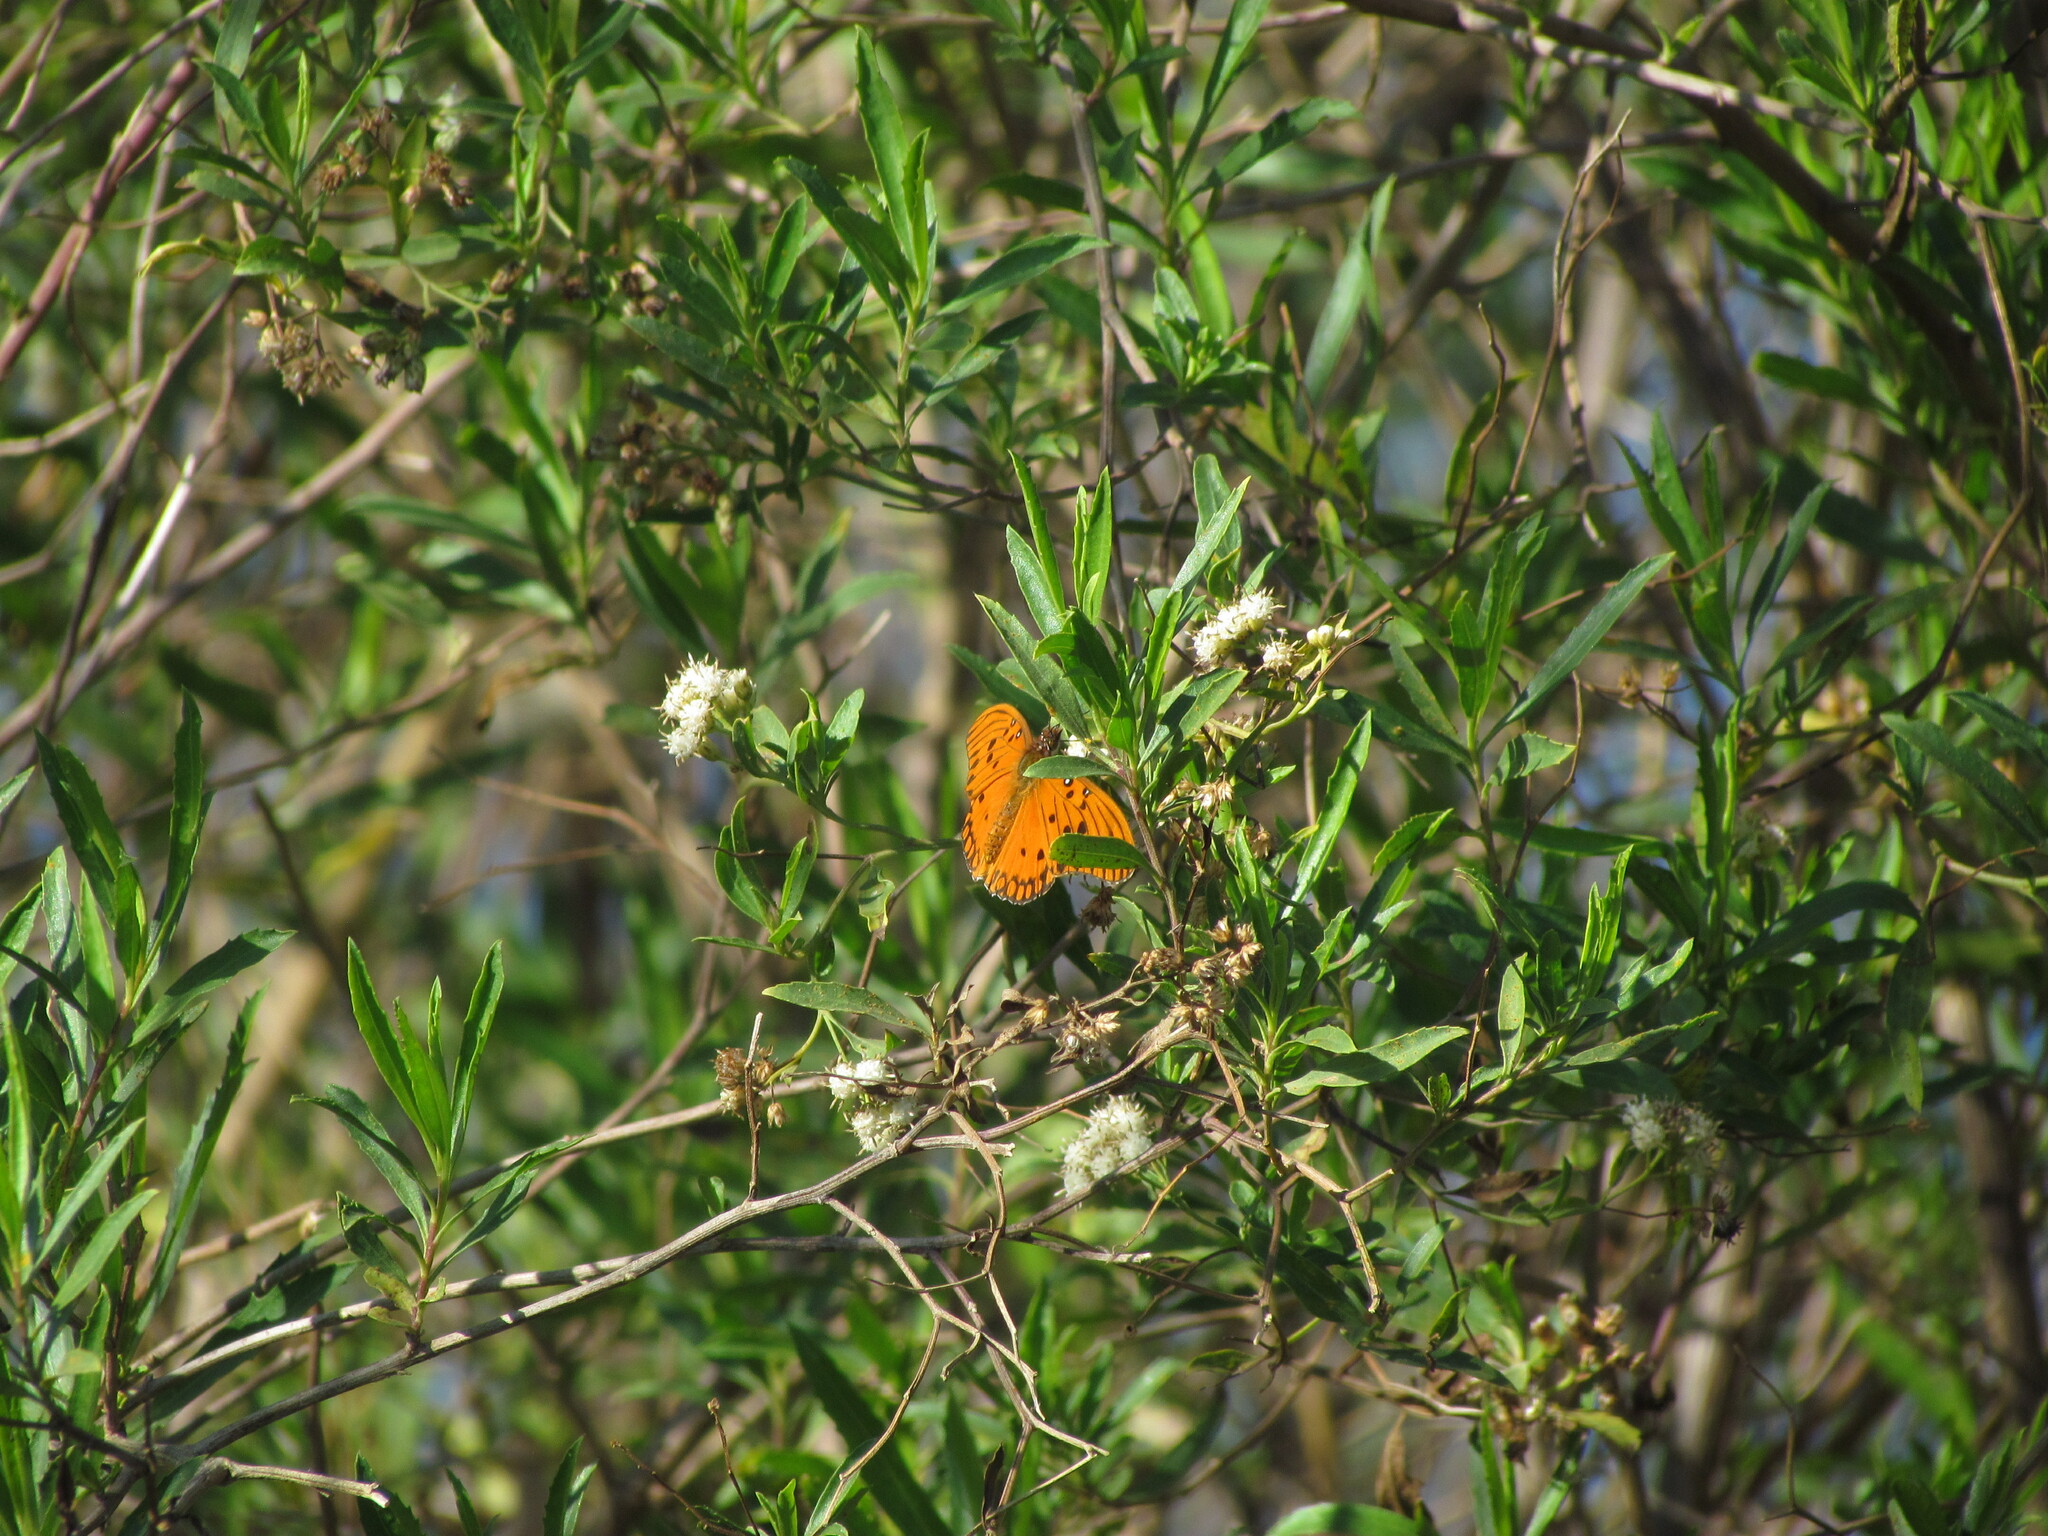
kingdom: Animalia
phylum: Arthropoda
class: Insecta
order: Lepidoptera
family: Nymphalidae
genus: Dione
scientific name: Dione vanillae
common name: Gulf fritillary
